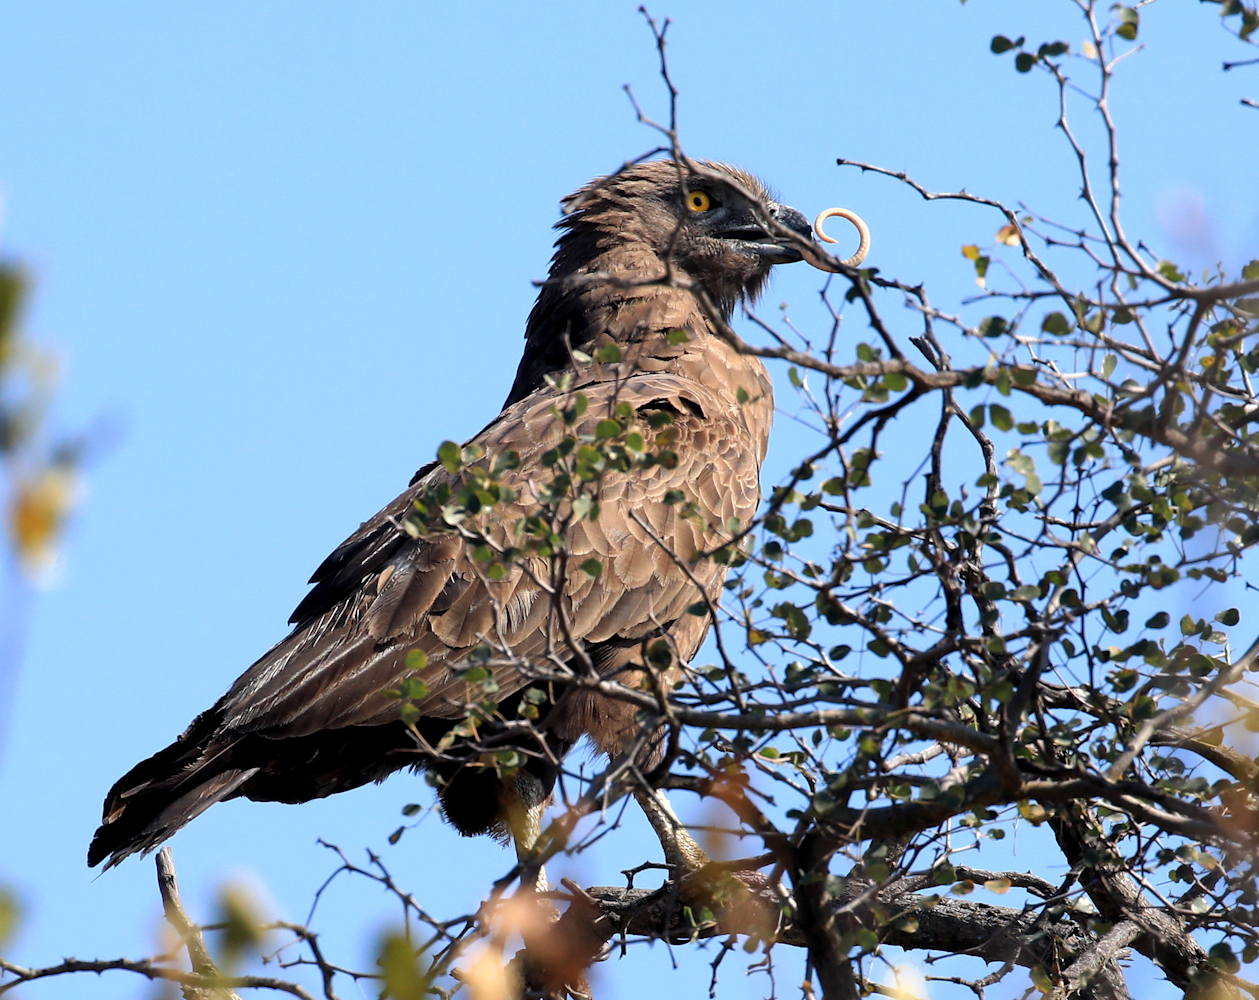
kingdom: Animalia
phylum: Chordata
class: Aves
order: Accipitriformes
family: Accipitridae
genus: Circaetus
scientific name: Circaetus cinereus
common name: Brown snake eagle
